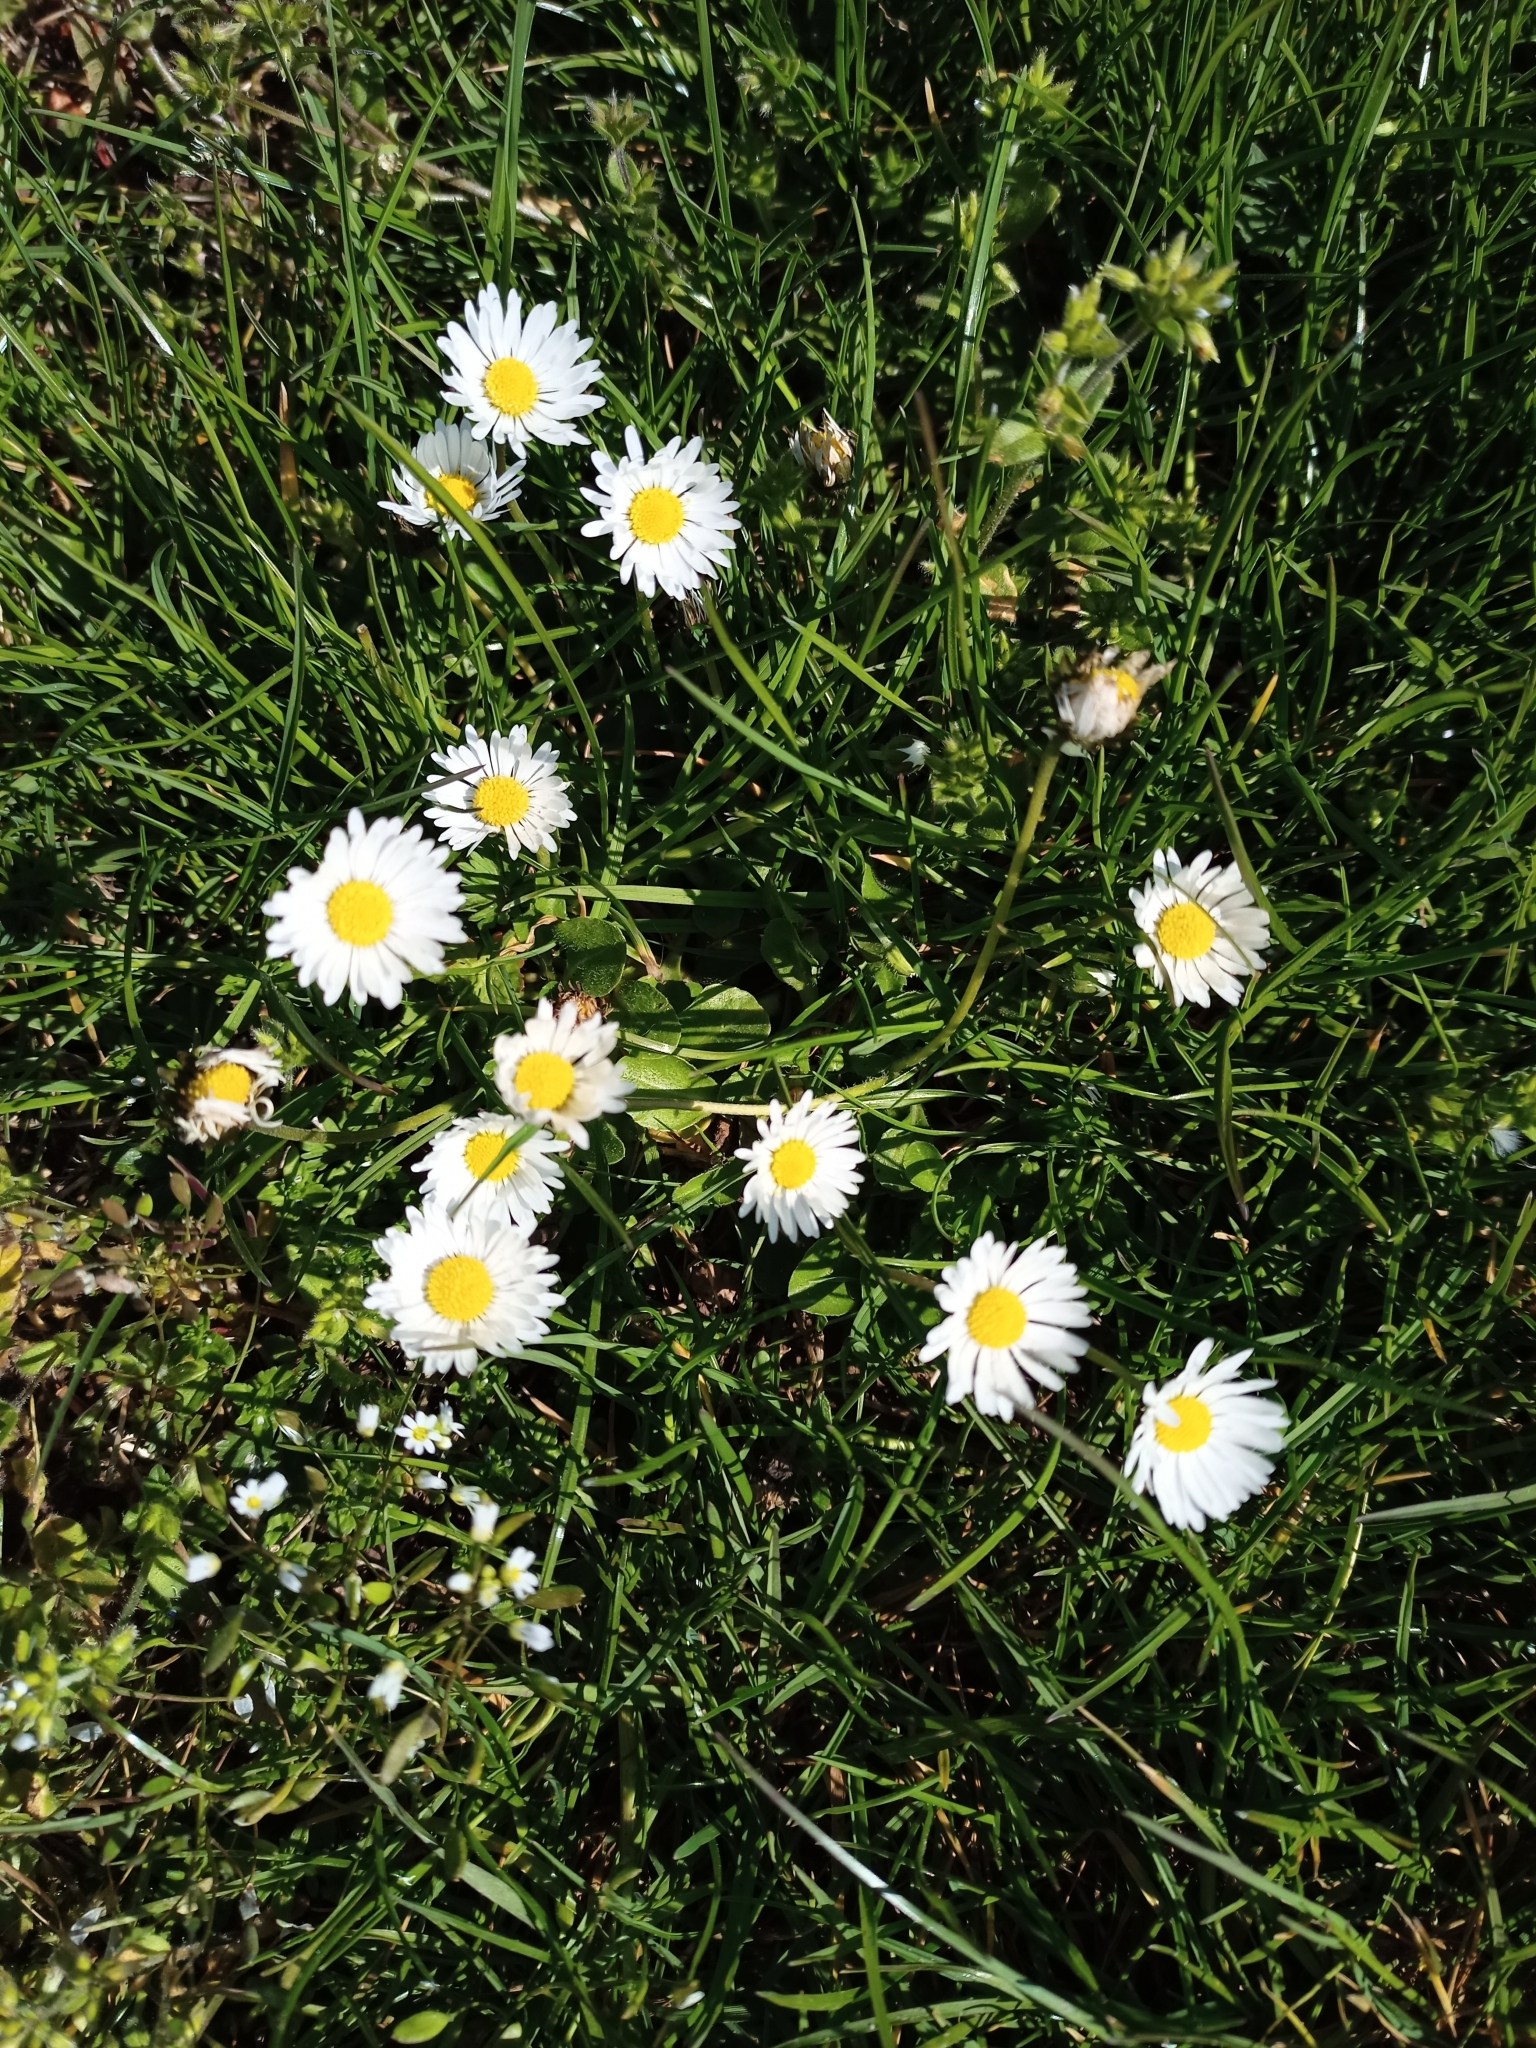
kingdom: Plantae
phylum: Tracheophyta
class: Magnoliopsida
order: Asterales
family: Asteraceae
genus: Bellis
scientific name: Bellis perennis
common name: Lawndaisy
